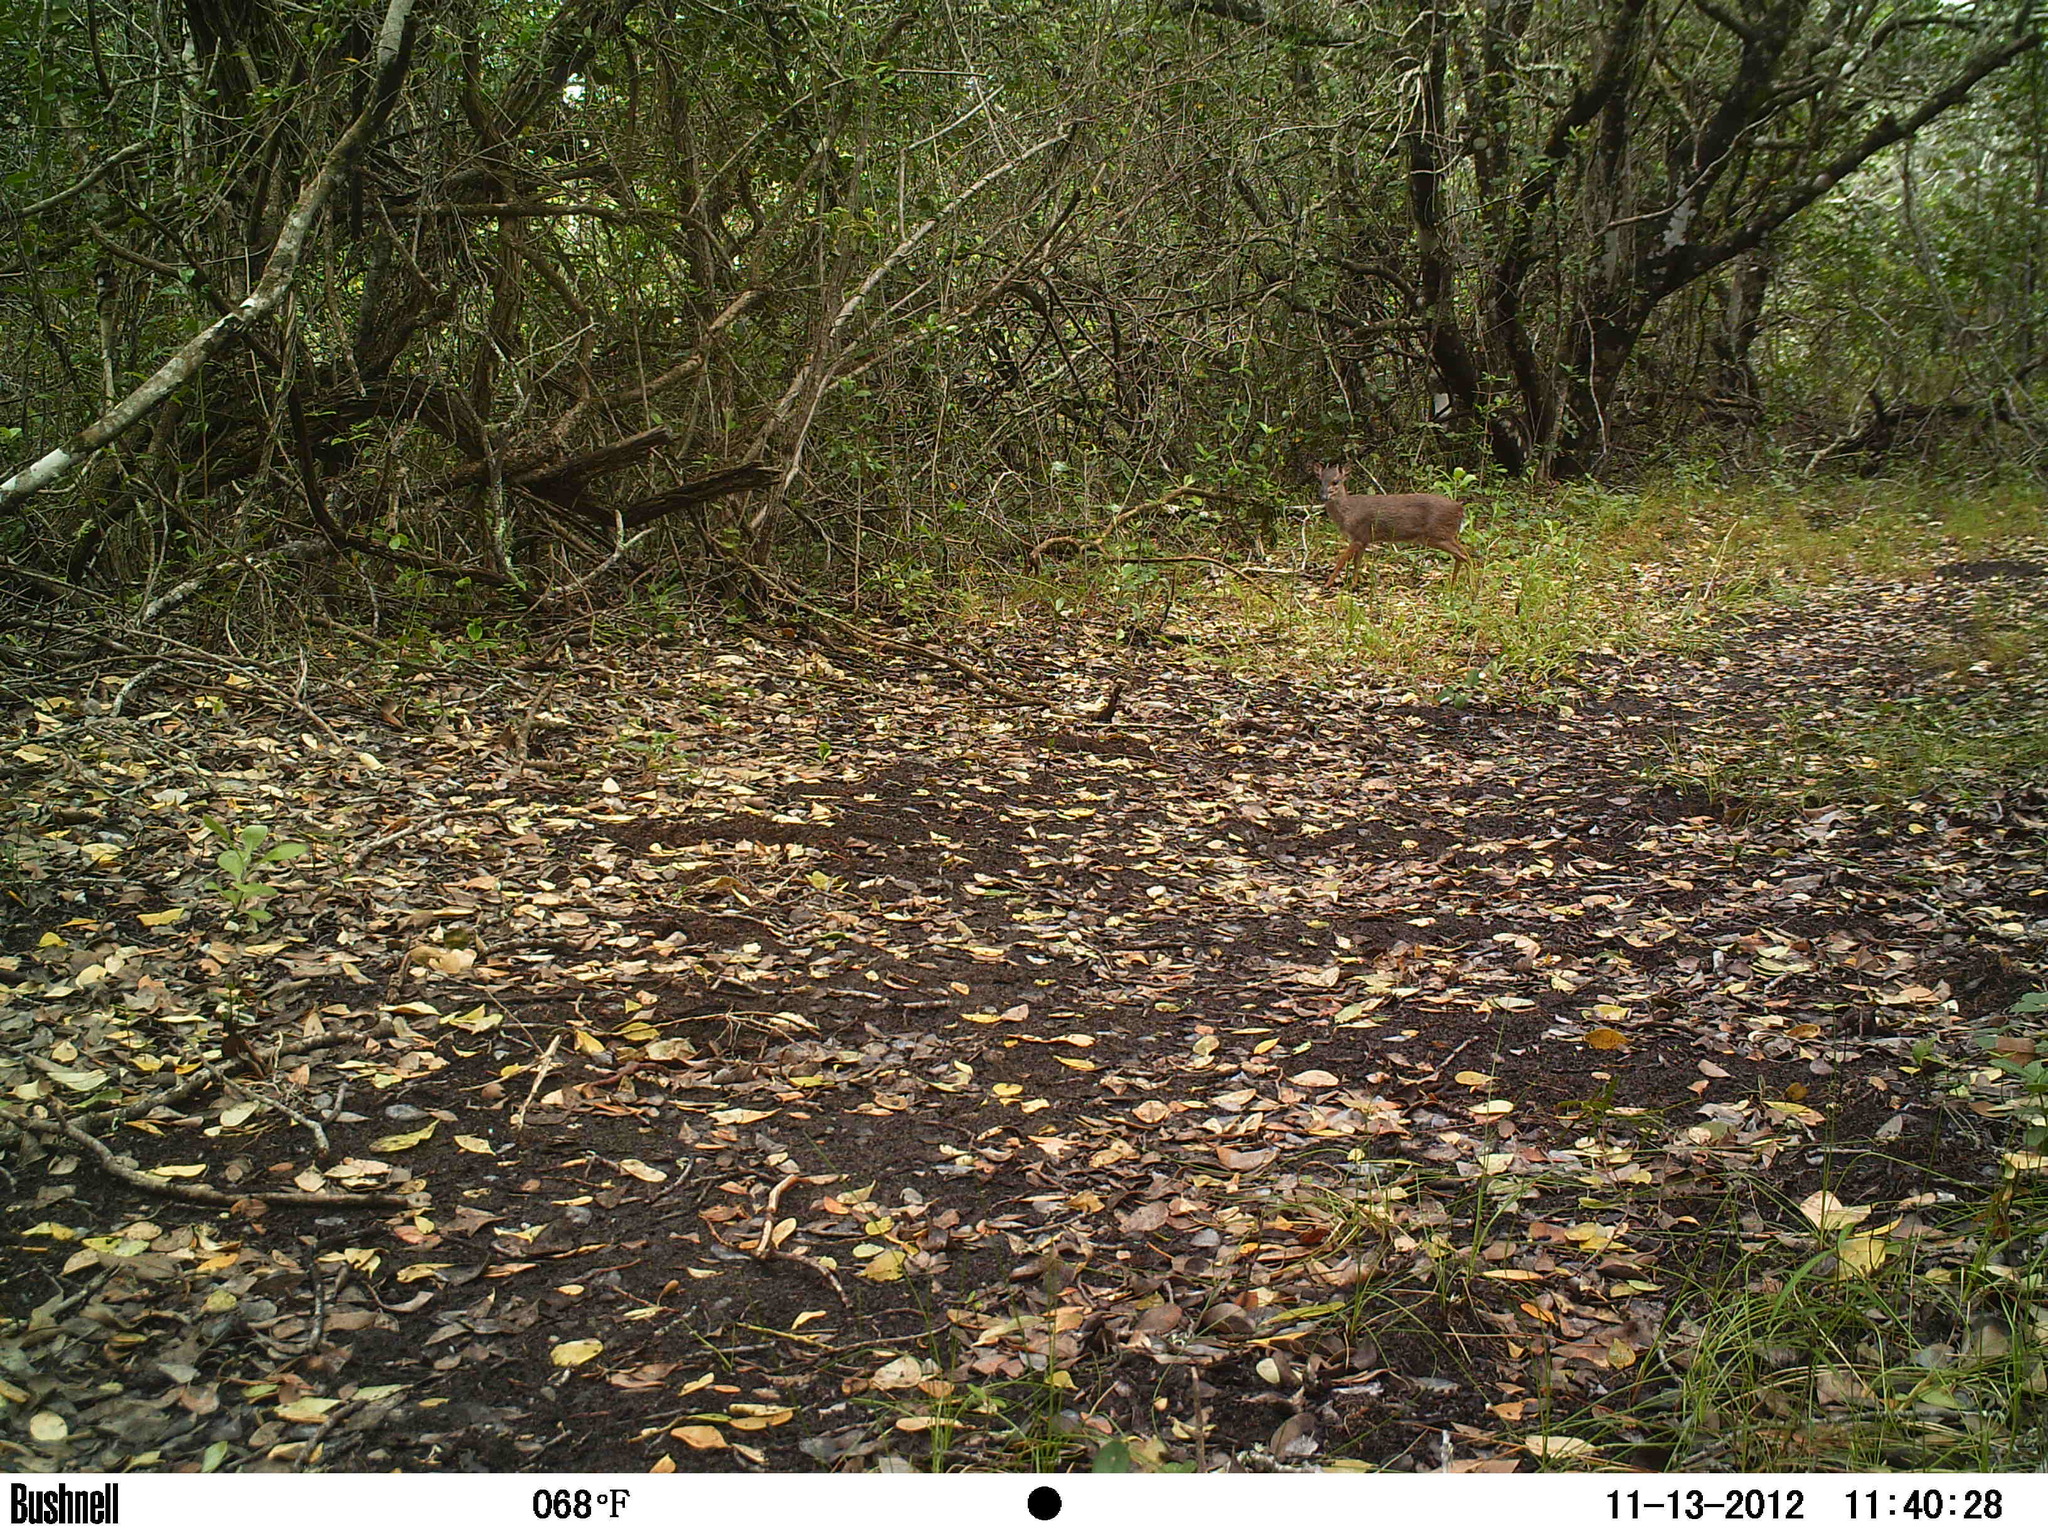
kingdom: Animalia
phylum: Chordata
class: Mammalia
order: Artiodactyla
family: Bovidae
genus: Philantomba
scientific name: Philantomba monticola
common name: Blue duiker
